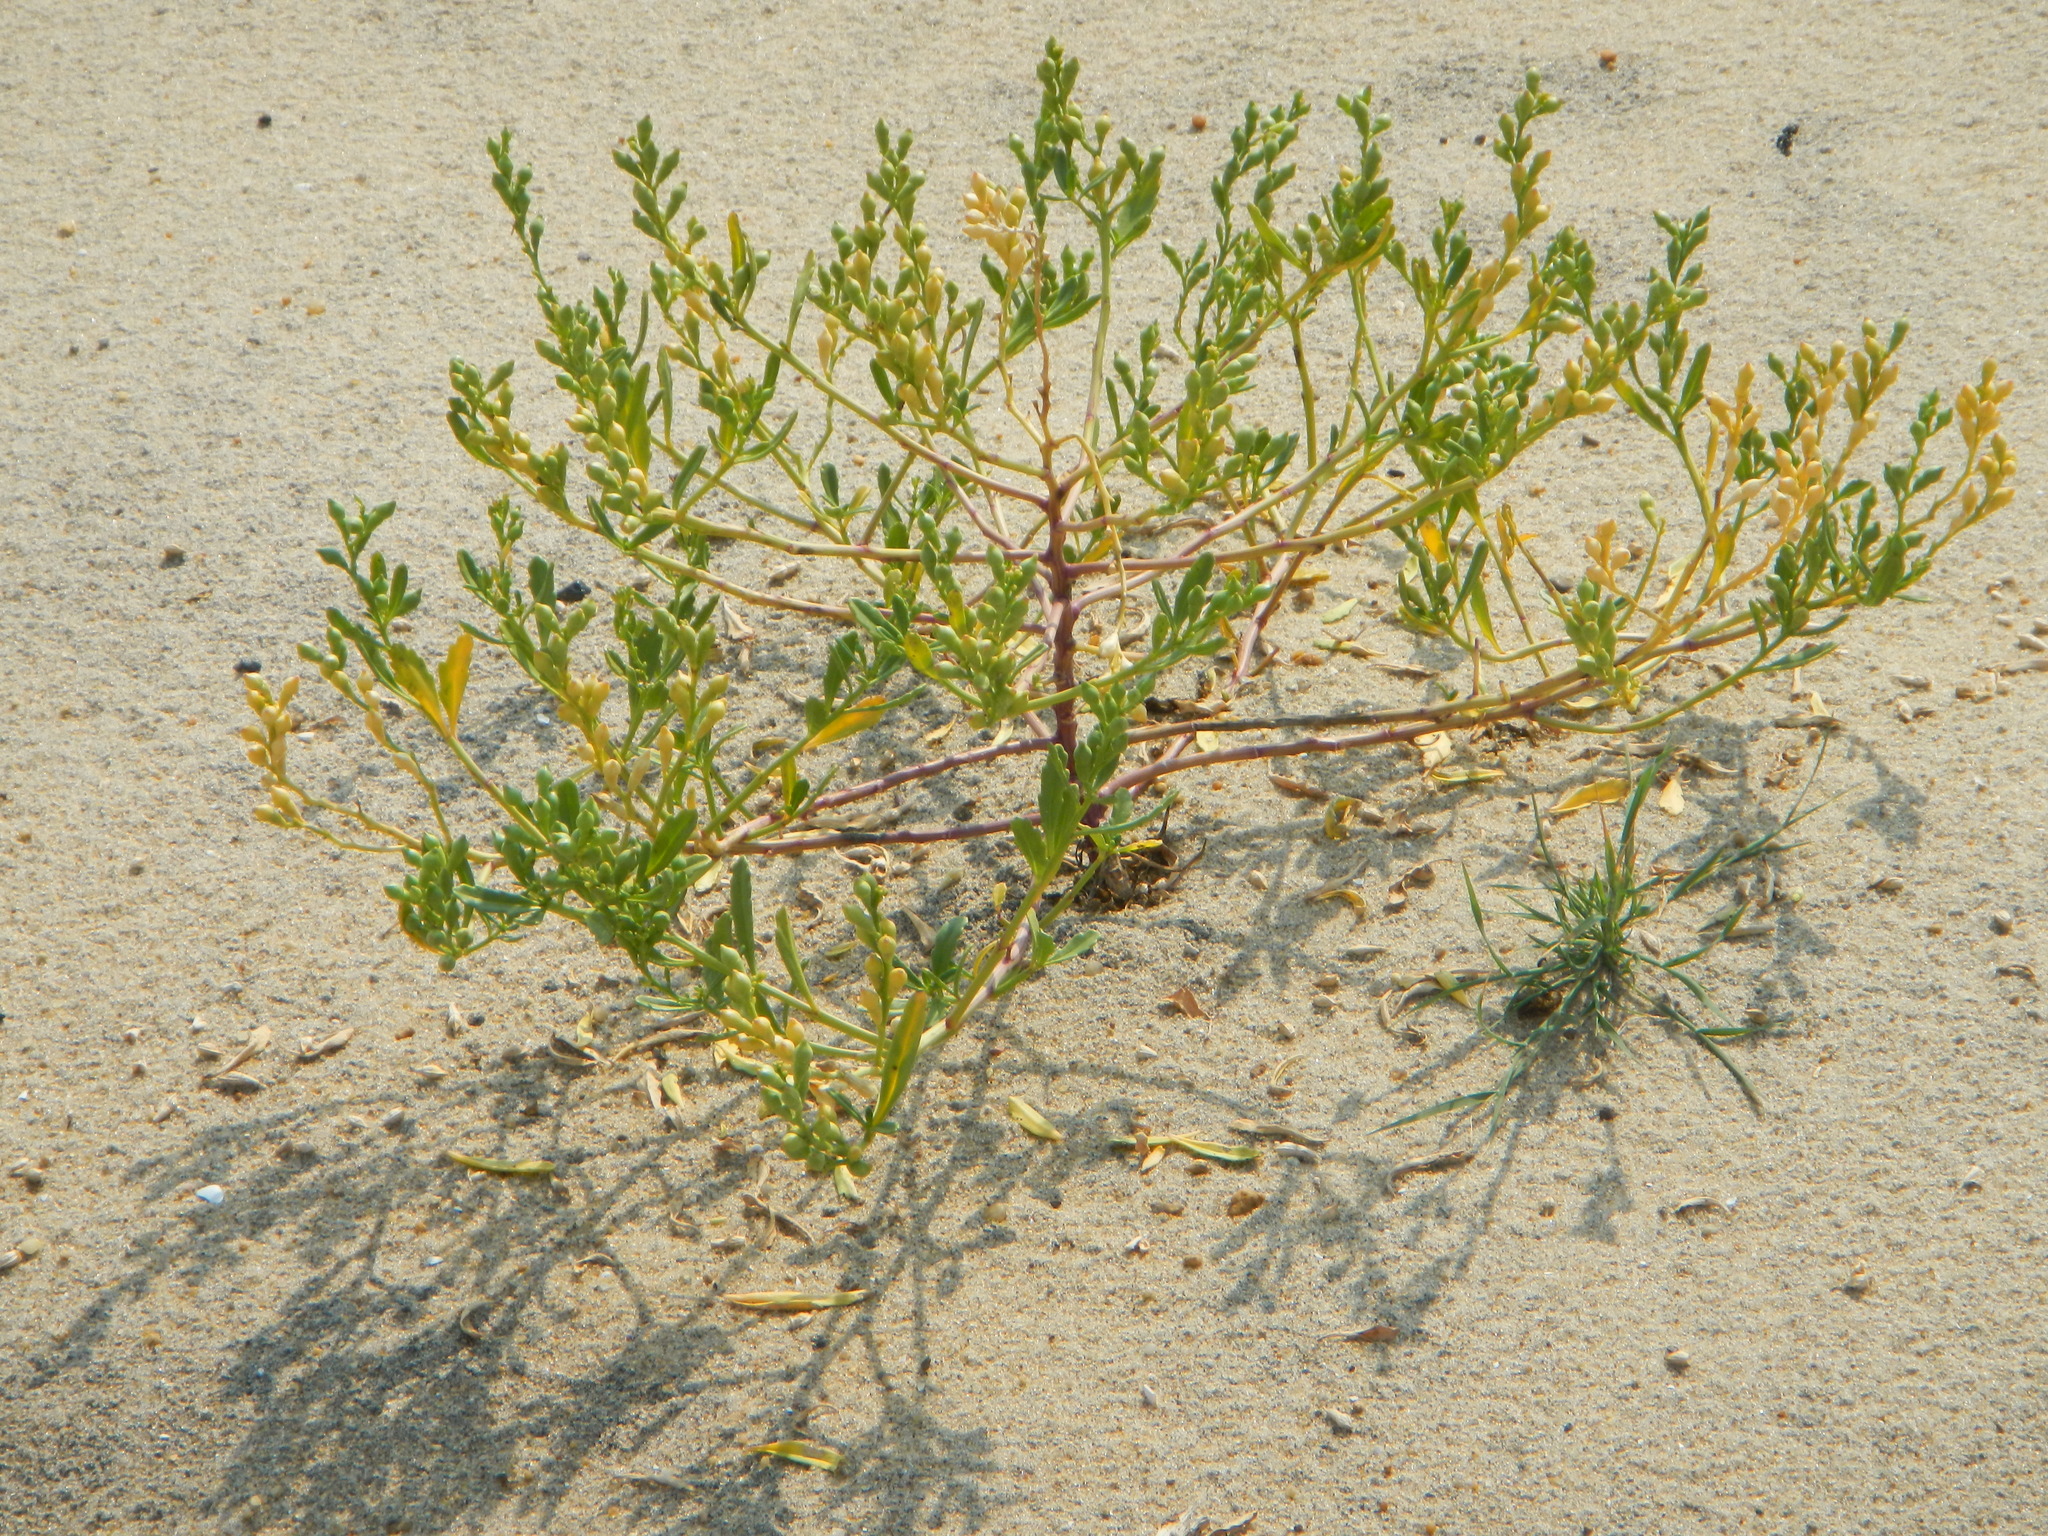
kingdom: Plantae
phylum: Tracheophyta
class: Magnoliopsida
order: Brassicales
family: Brassicaceae
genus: Cakile
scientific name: Cakile edentula
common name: American sea rocket
